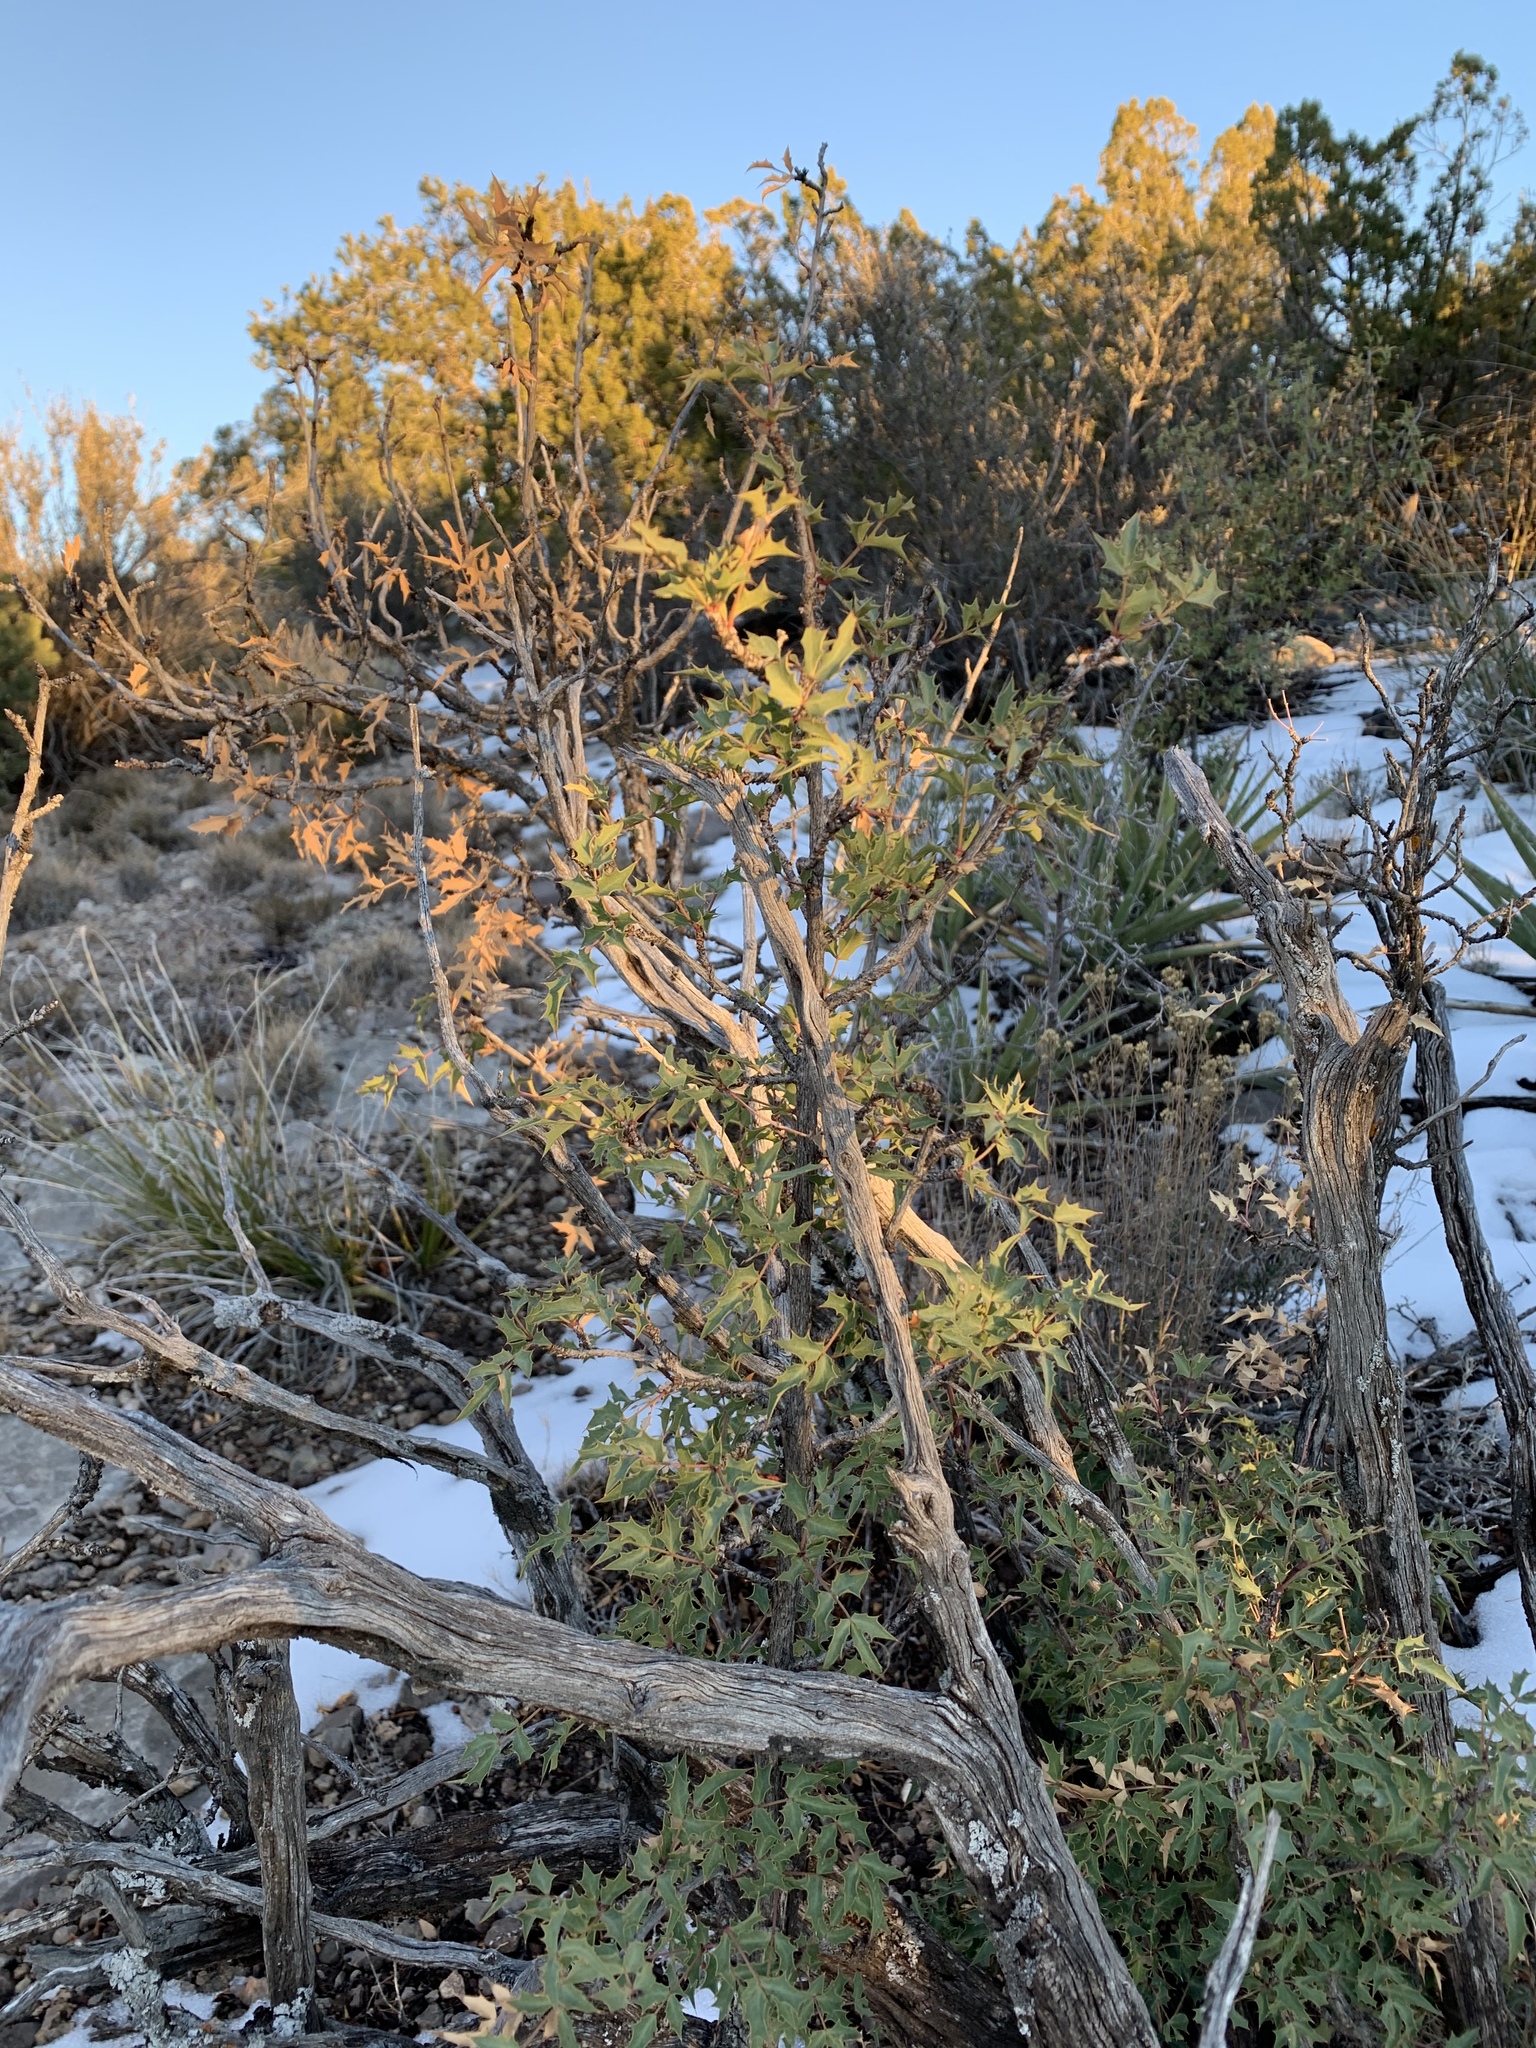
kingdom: Plantae
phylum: Tracheophyta
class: Magnoliopsida
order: Ranunculales
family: Berberidaceae
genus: Alloberberis
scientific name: Alloberberis haematocarpa
